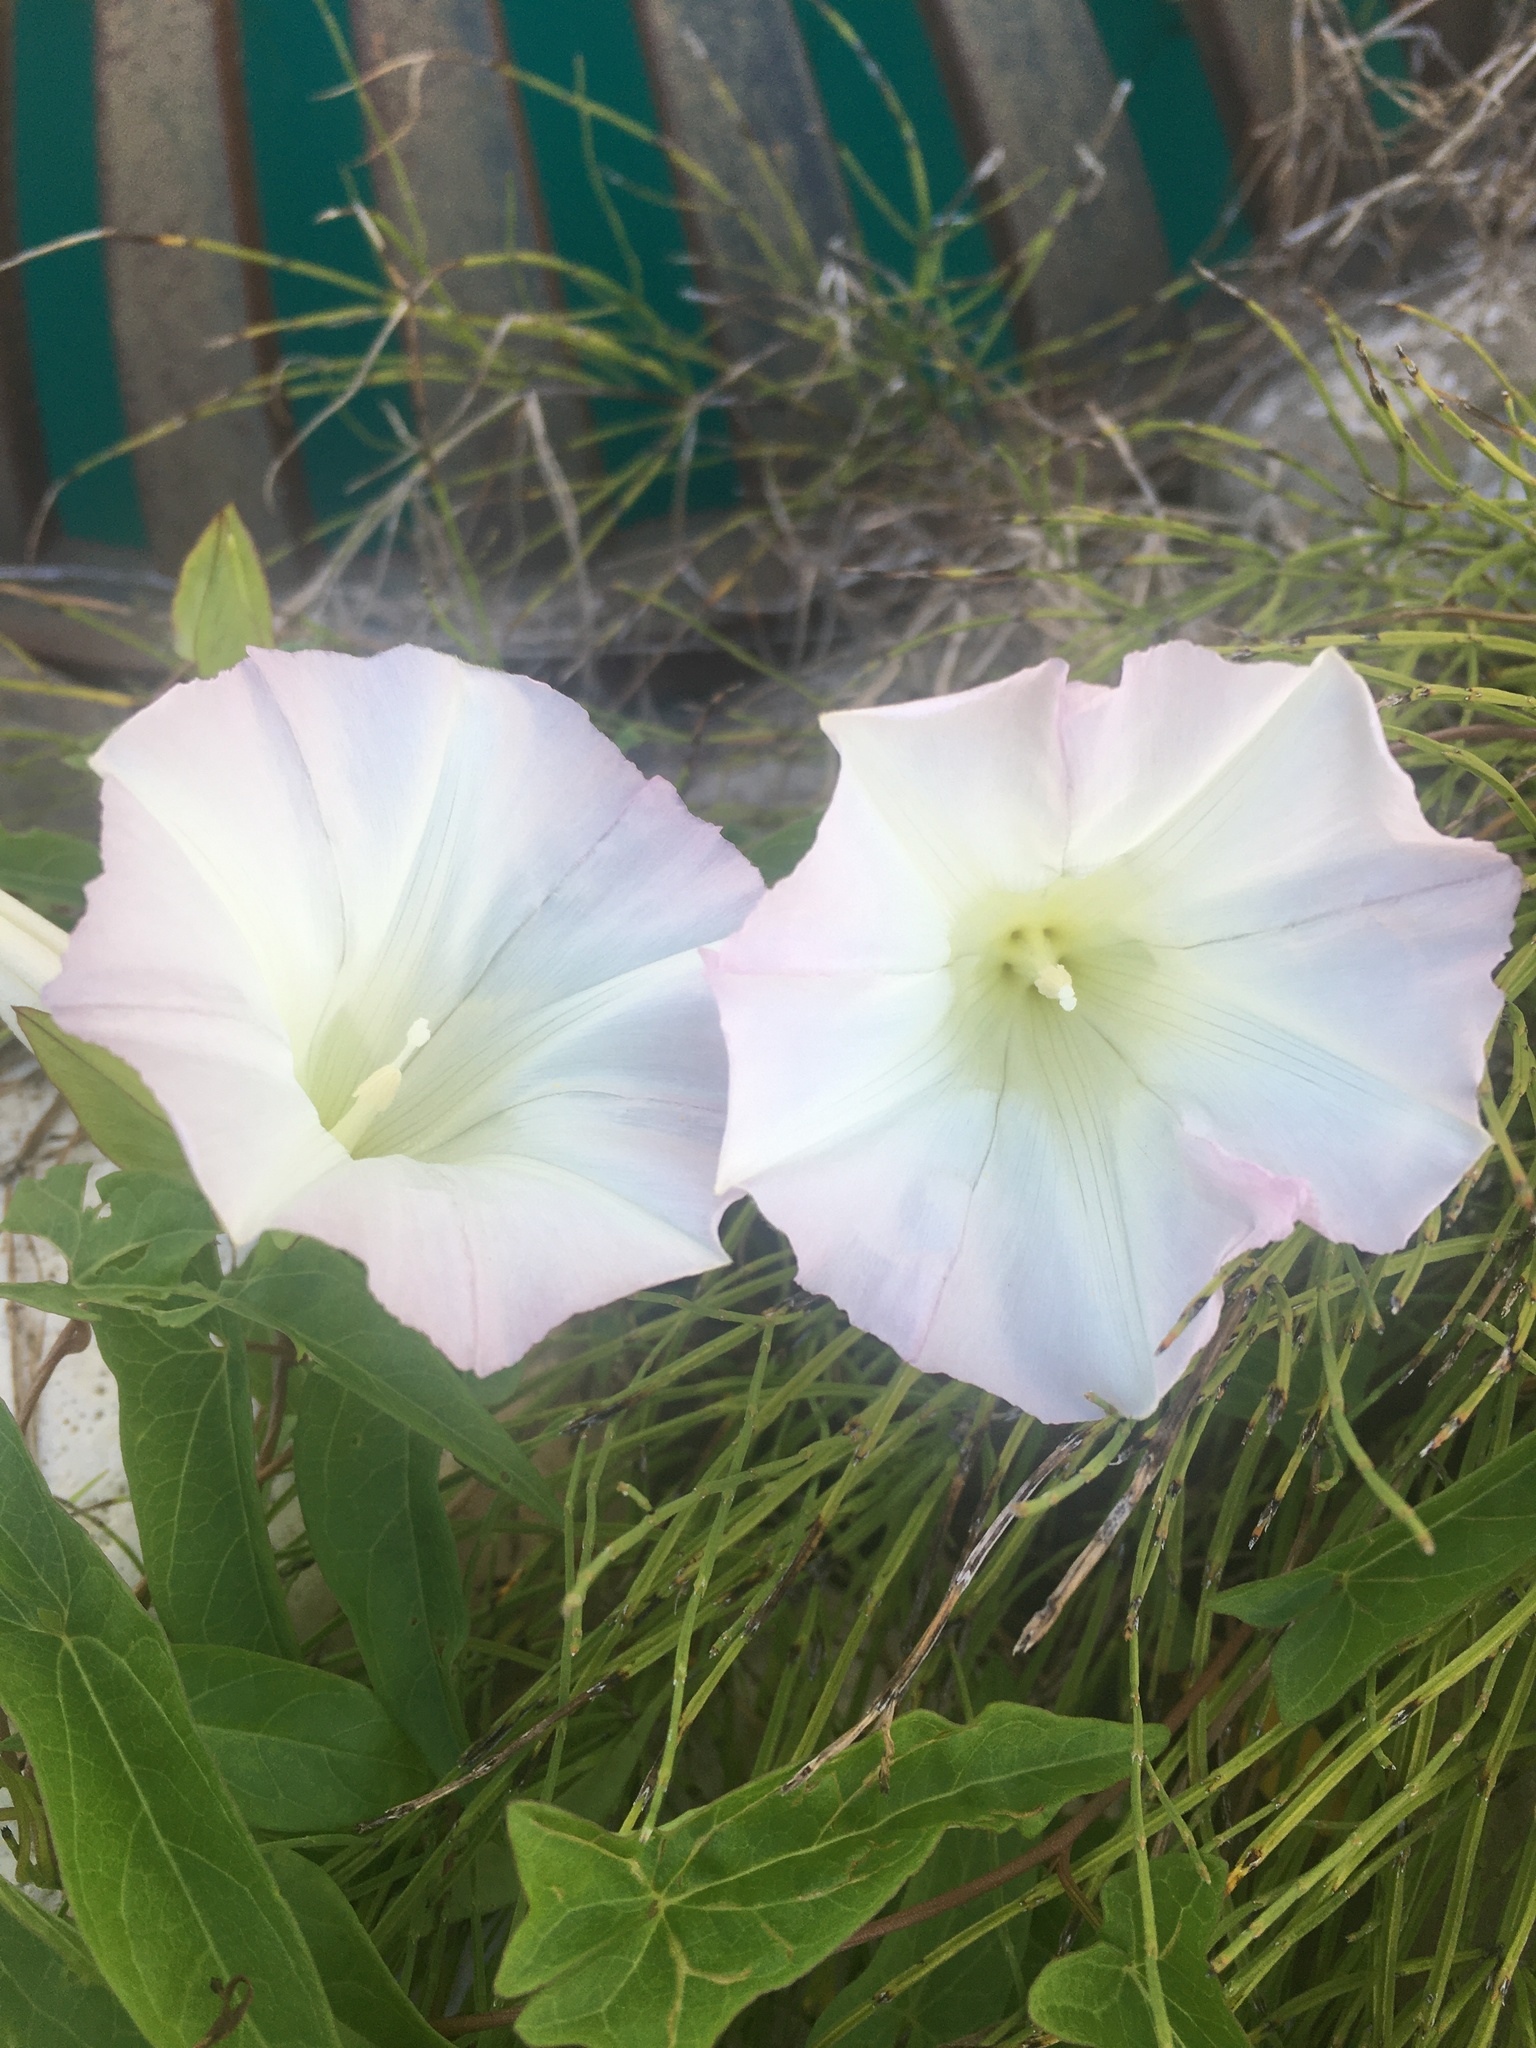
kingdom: Plantae
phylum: Tracheophyta
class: Magnoliopsida
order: Solanales
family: Convolvulaceae
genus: Calystegia
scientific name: Calystegia sepium
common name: Hedge bindweed
